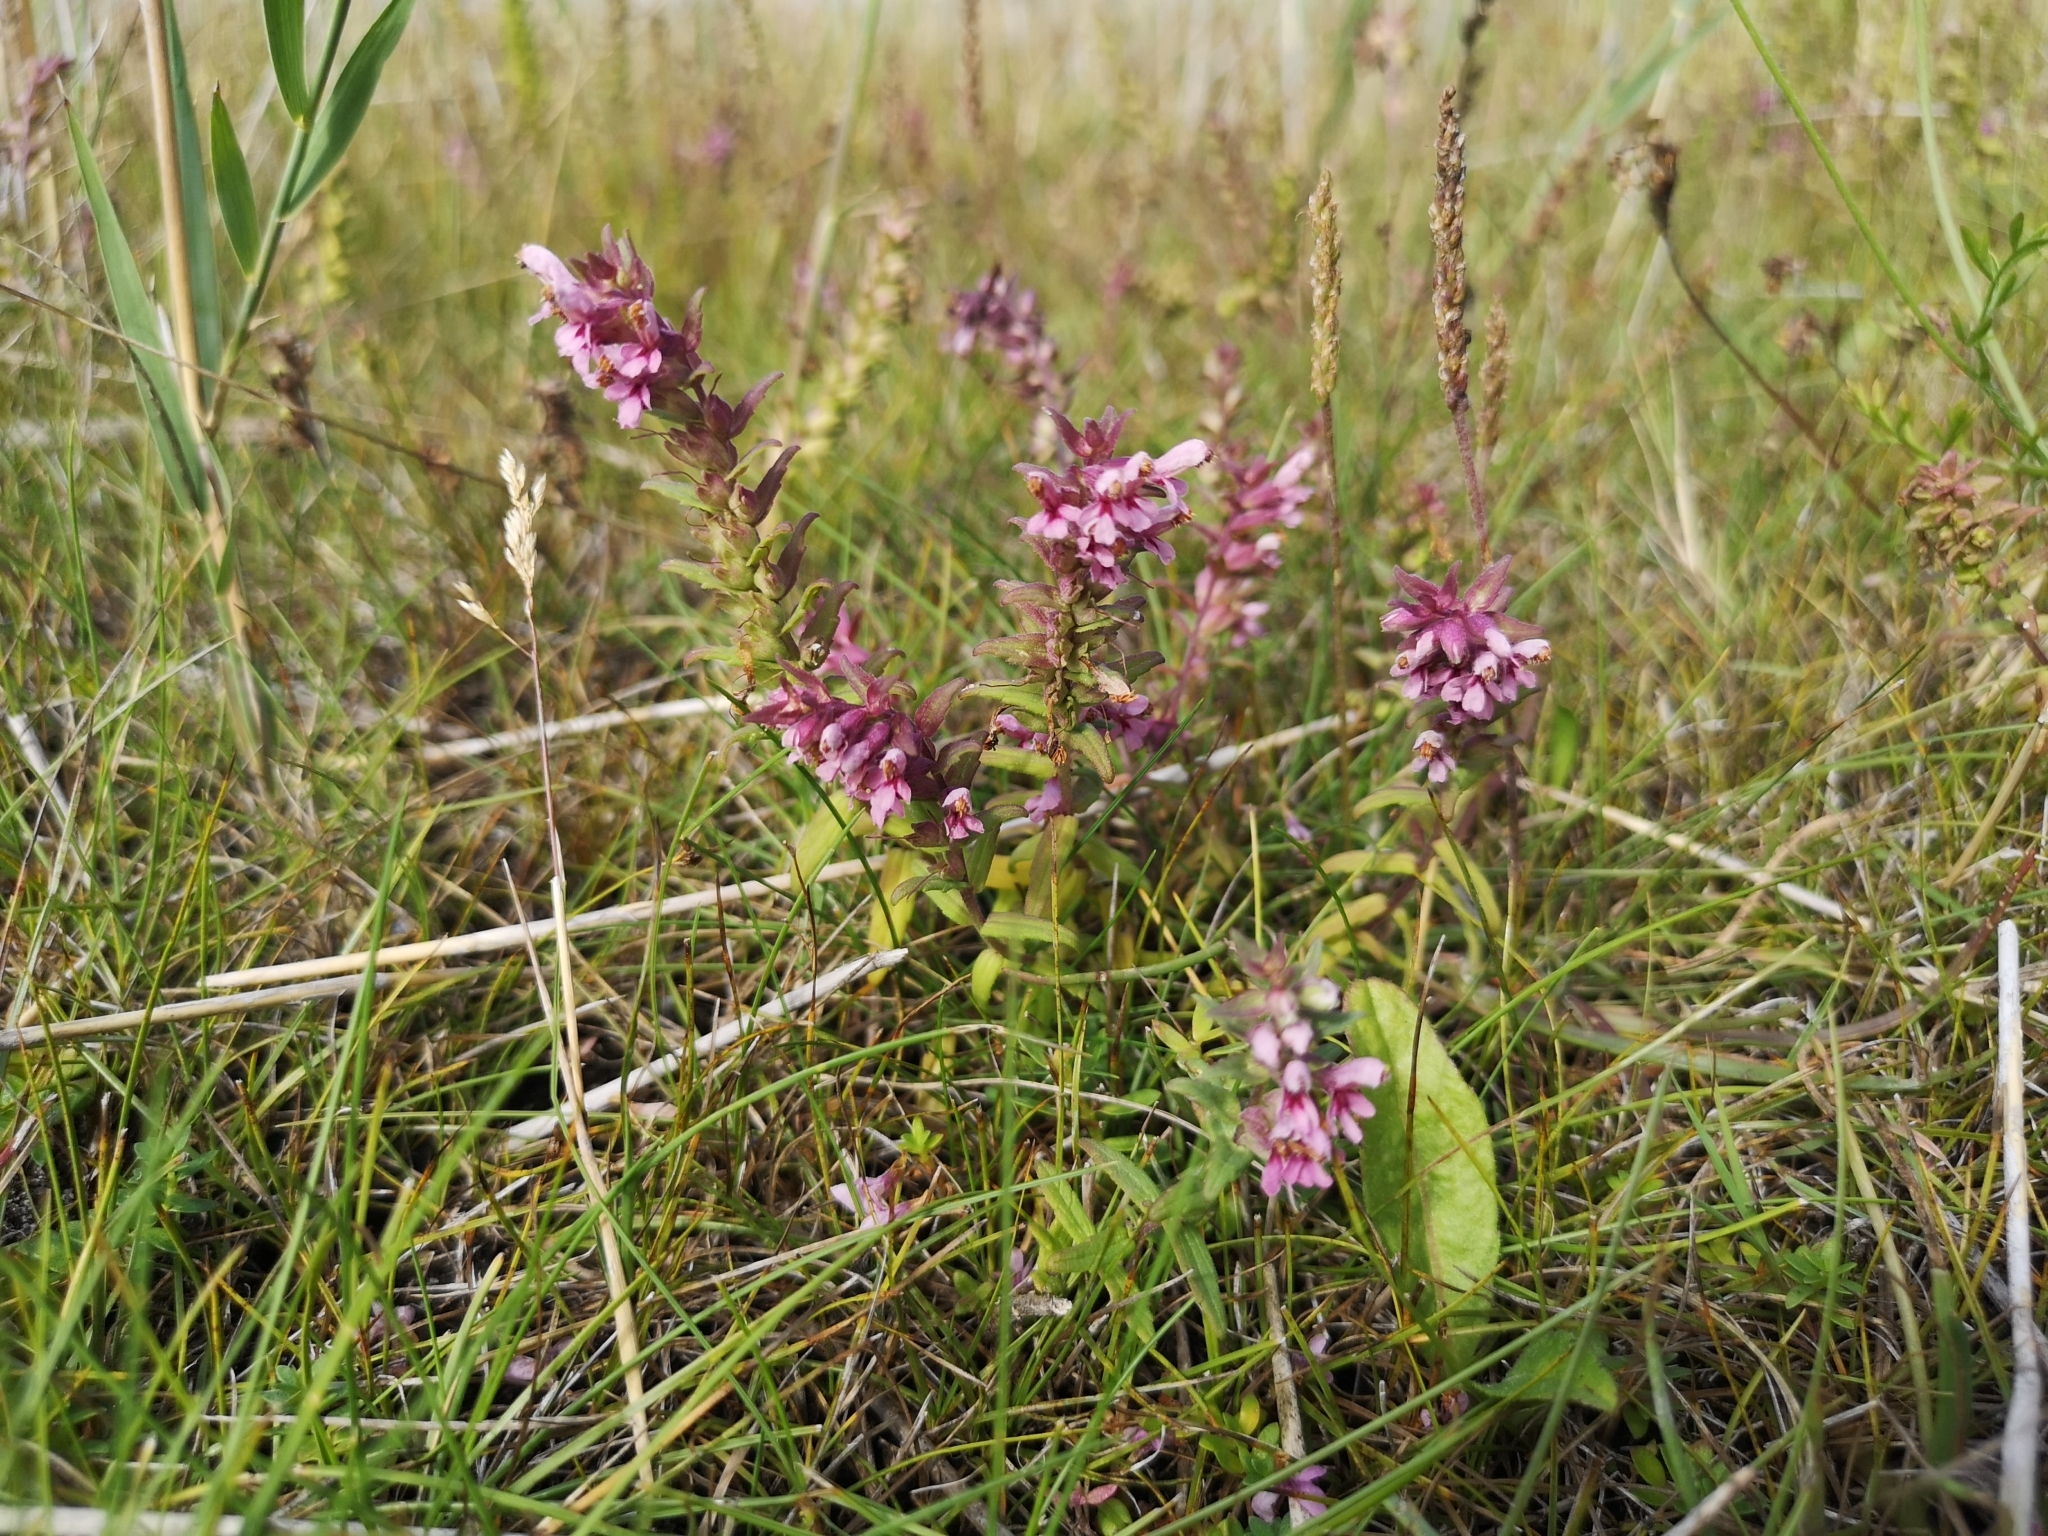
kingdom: Plantae
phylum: Tracheophyta
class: Magnoliopsida
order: Lamiales
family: Orobanchaceae
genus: Odontites
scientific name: Odontites vernus
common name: Red bartsia
